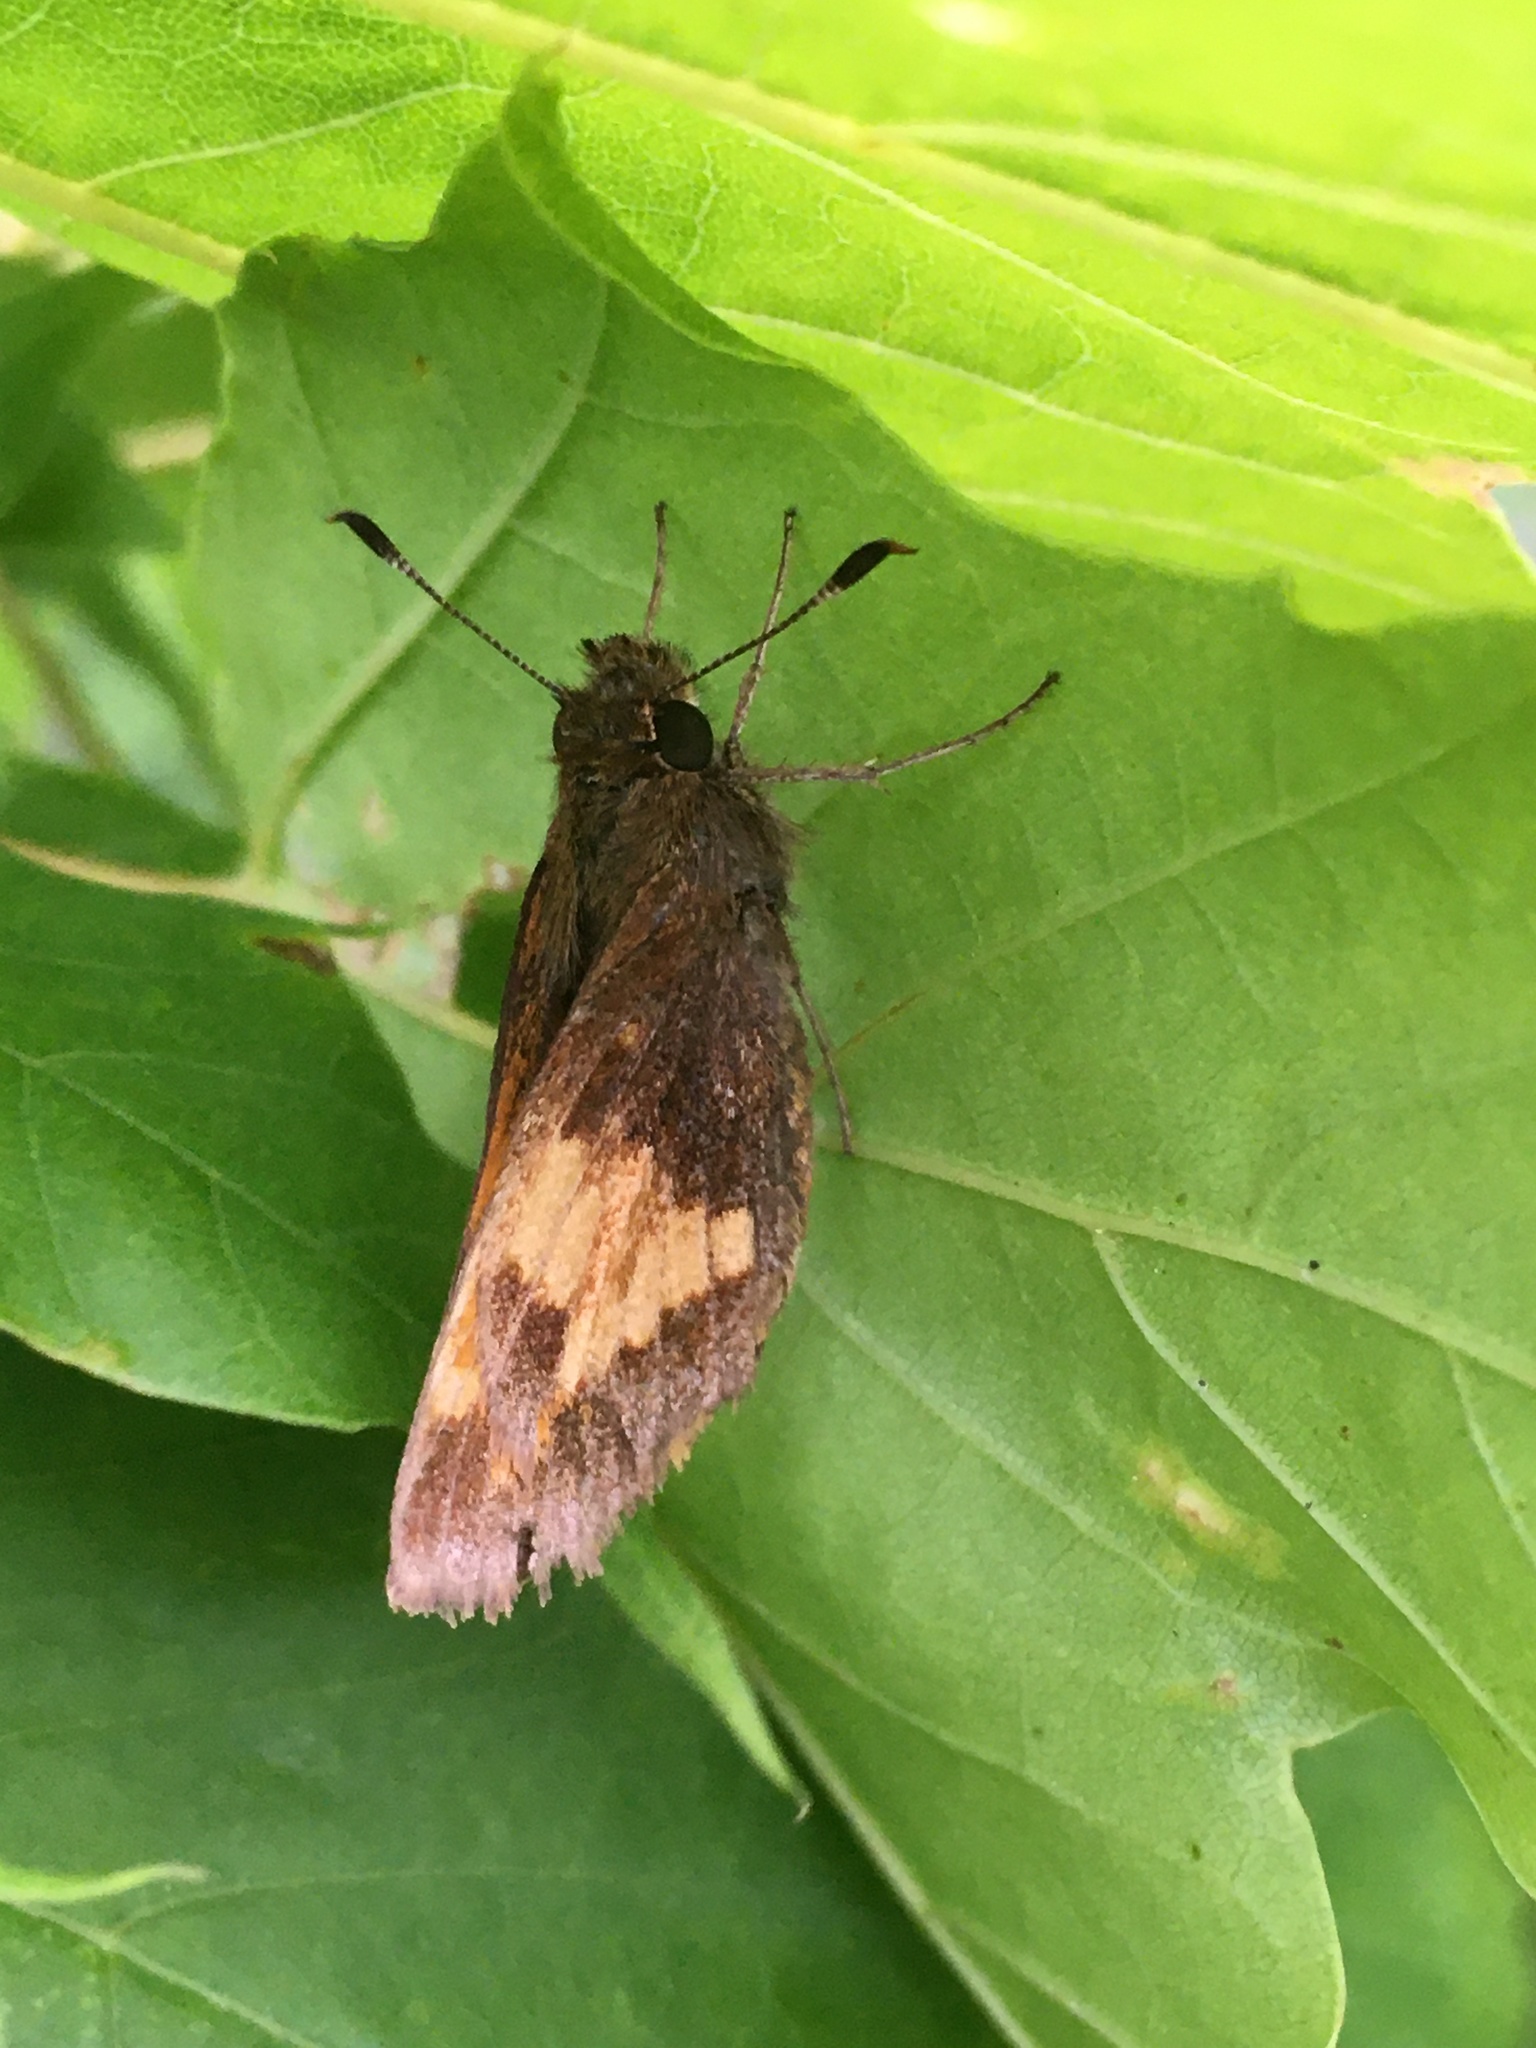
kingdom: Animalia
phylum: Arthropoda
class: Insecta
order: Lepidoptera
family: Hesperiidae
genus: Lon
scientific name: Lon hobomok
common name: Hobomok skipper
